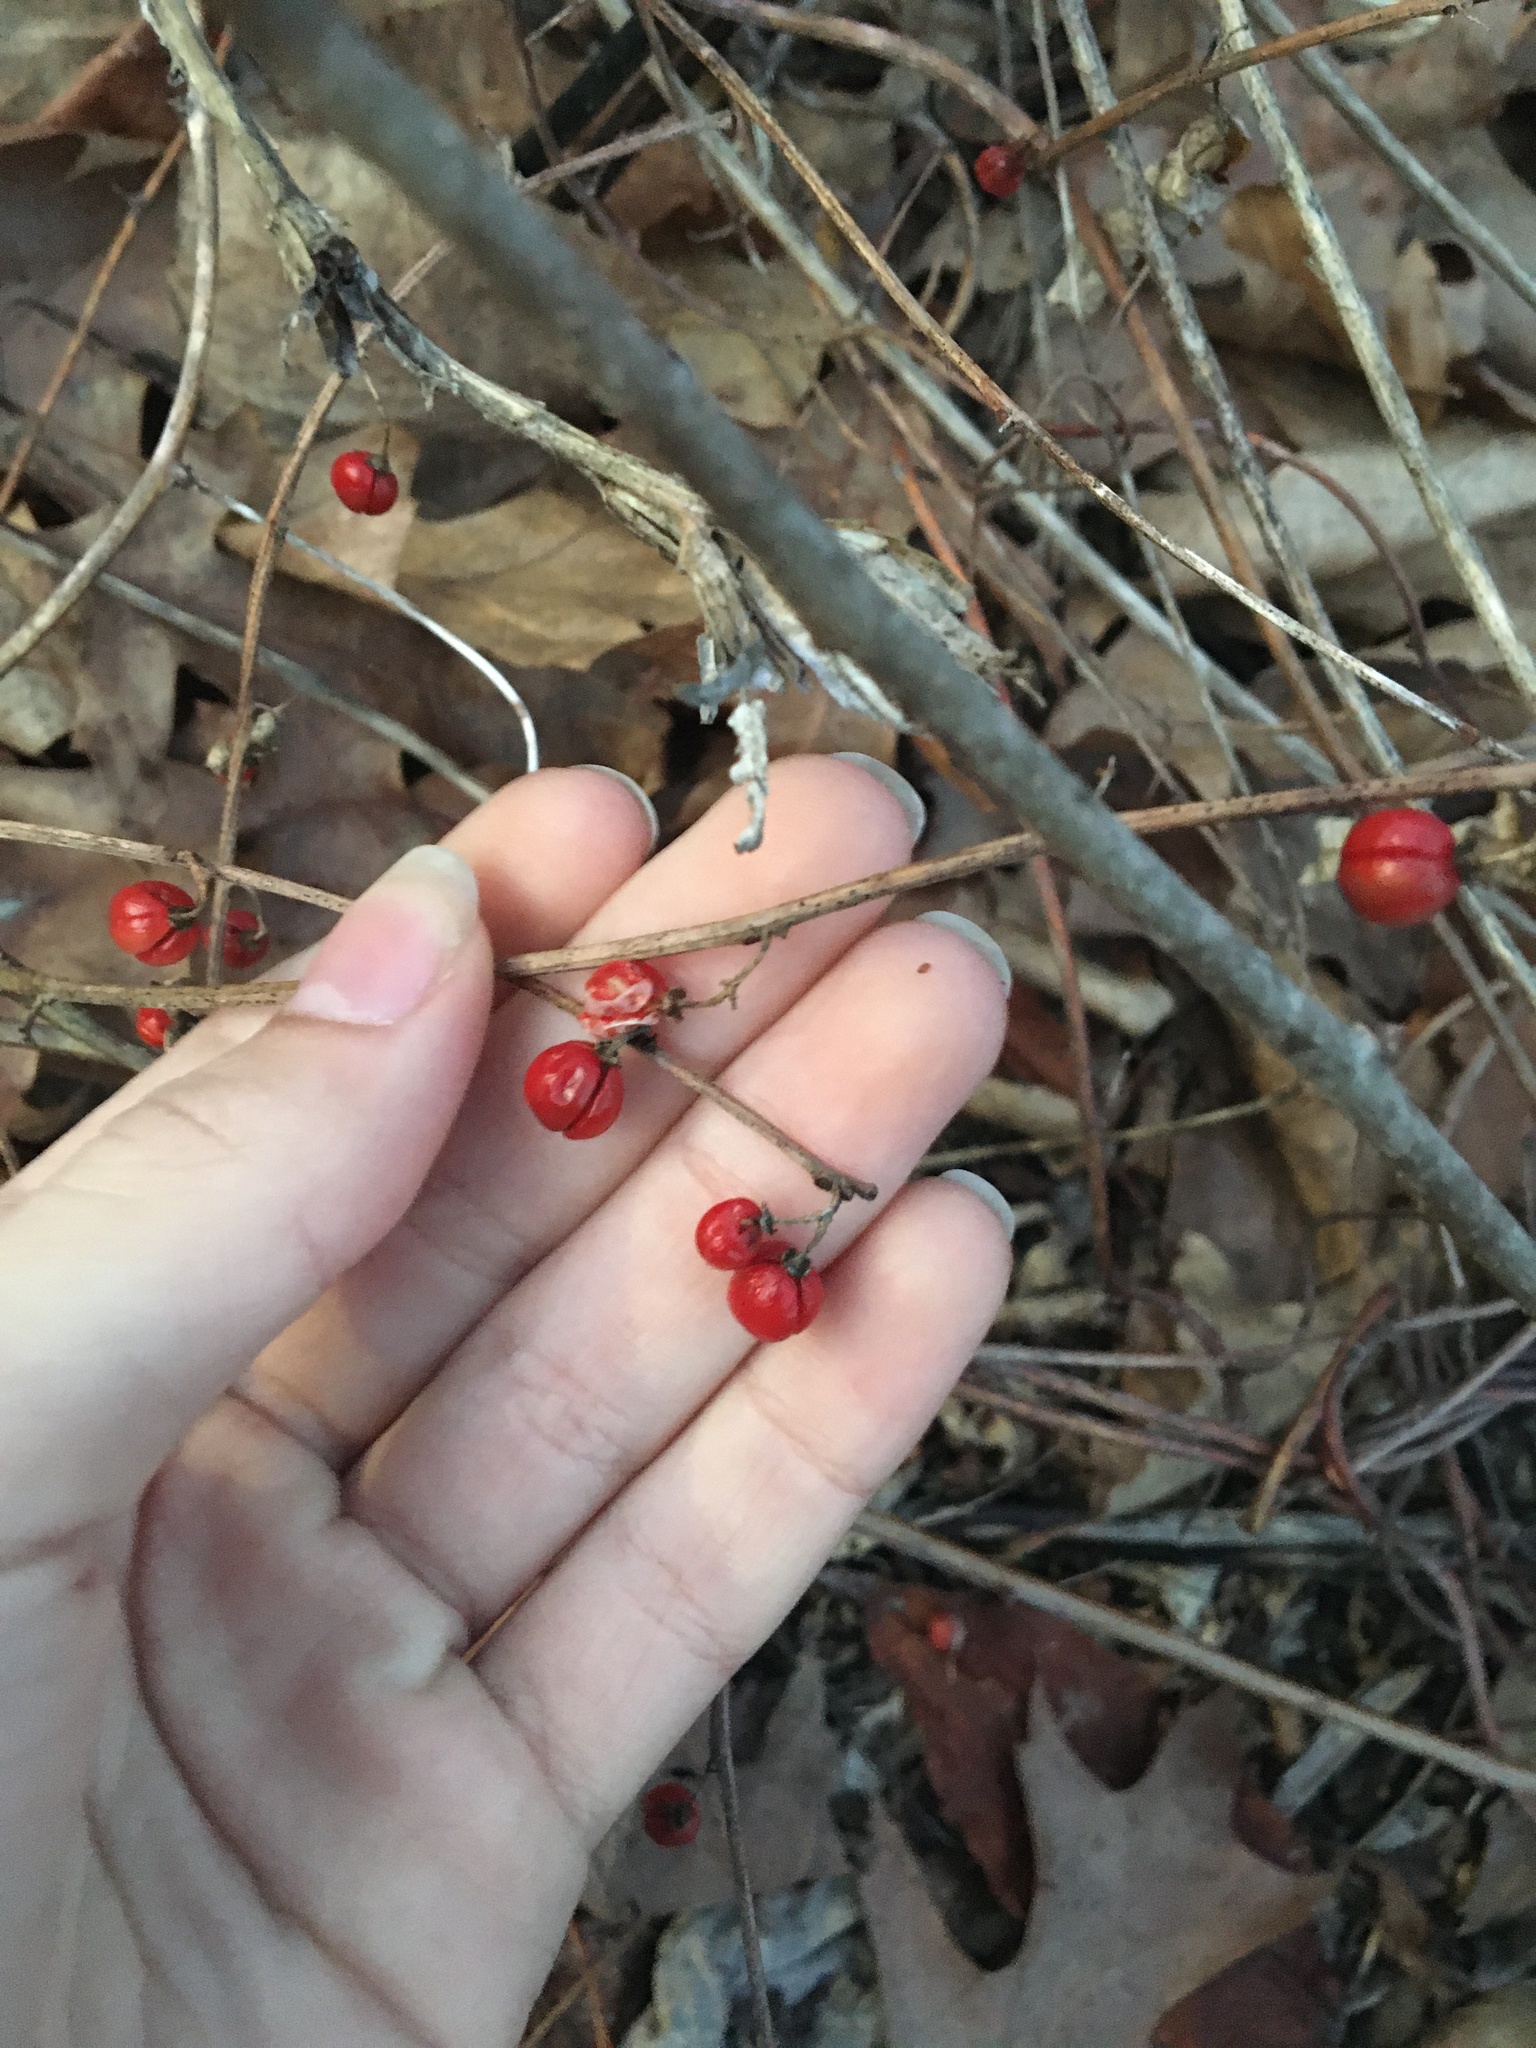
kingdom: Plantae
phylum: Tracheophyta
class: Magnoliopsida
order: Celastrales
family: Celastraceae
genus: Celastrus
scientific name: Celastrus orbiculatus
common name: Oriental bittersweet
